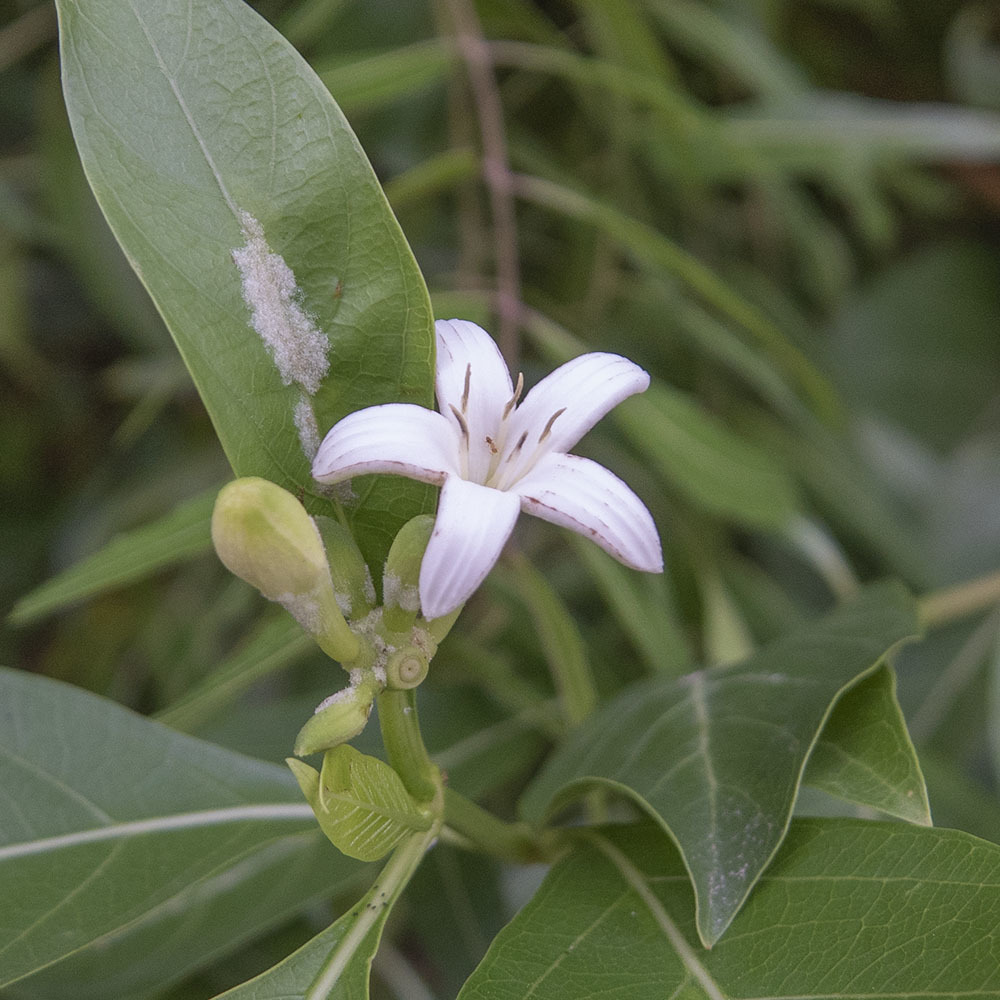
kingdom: Plantae
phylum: Tracheophyta
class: Magnoliopsida
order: Gentianales
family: Rubiaceae
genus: Morinda
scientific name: Morinda coreia
